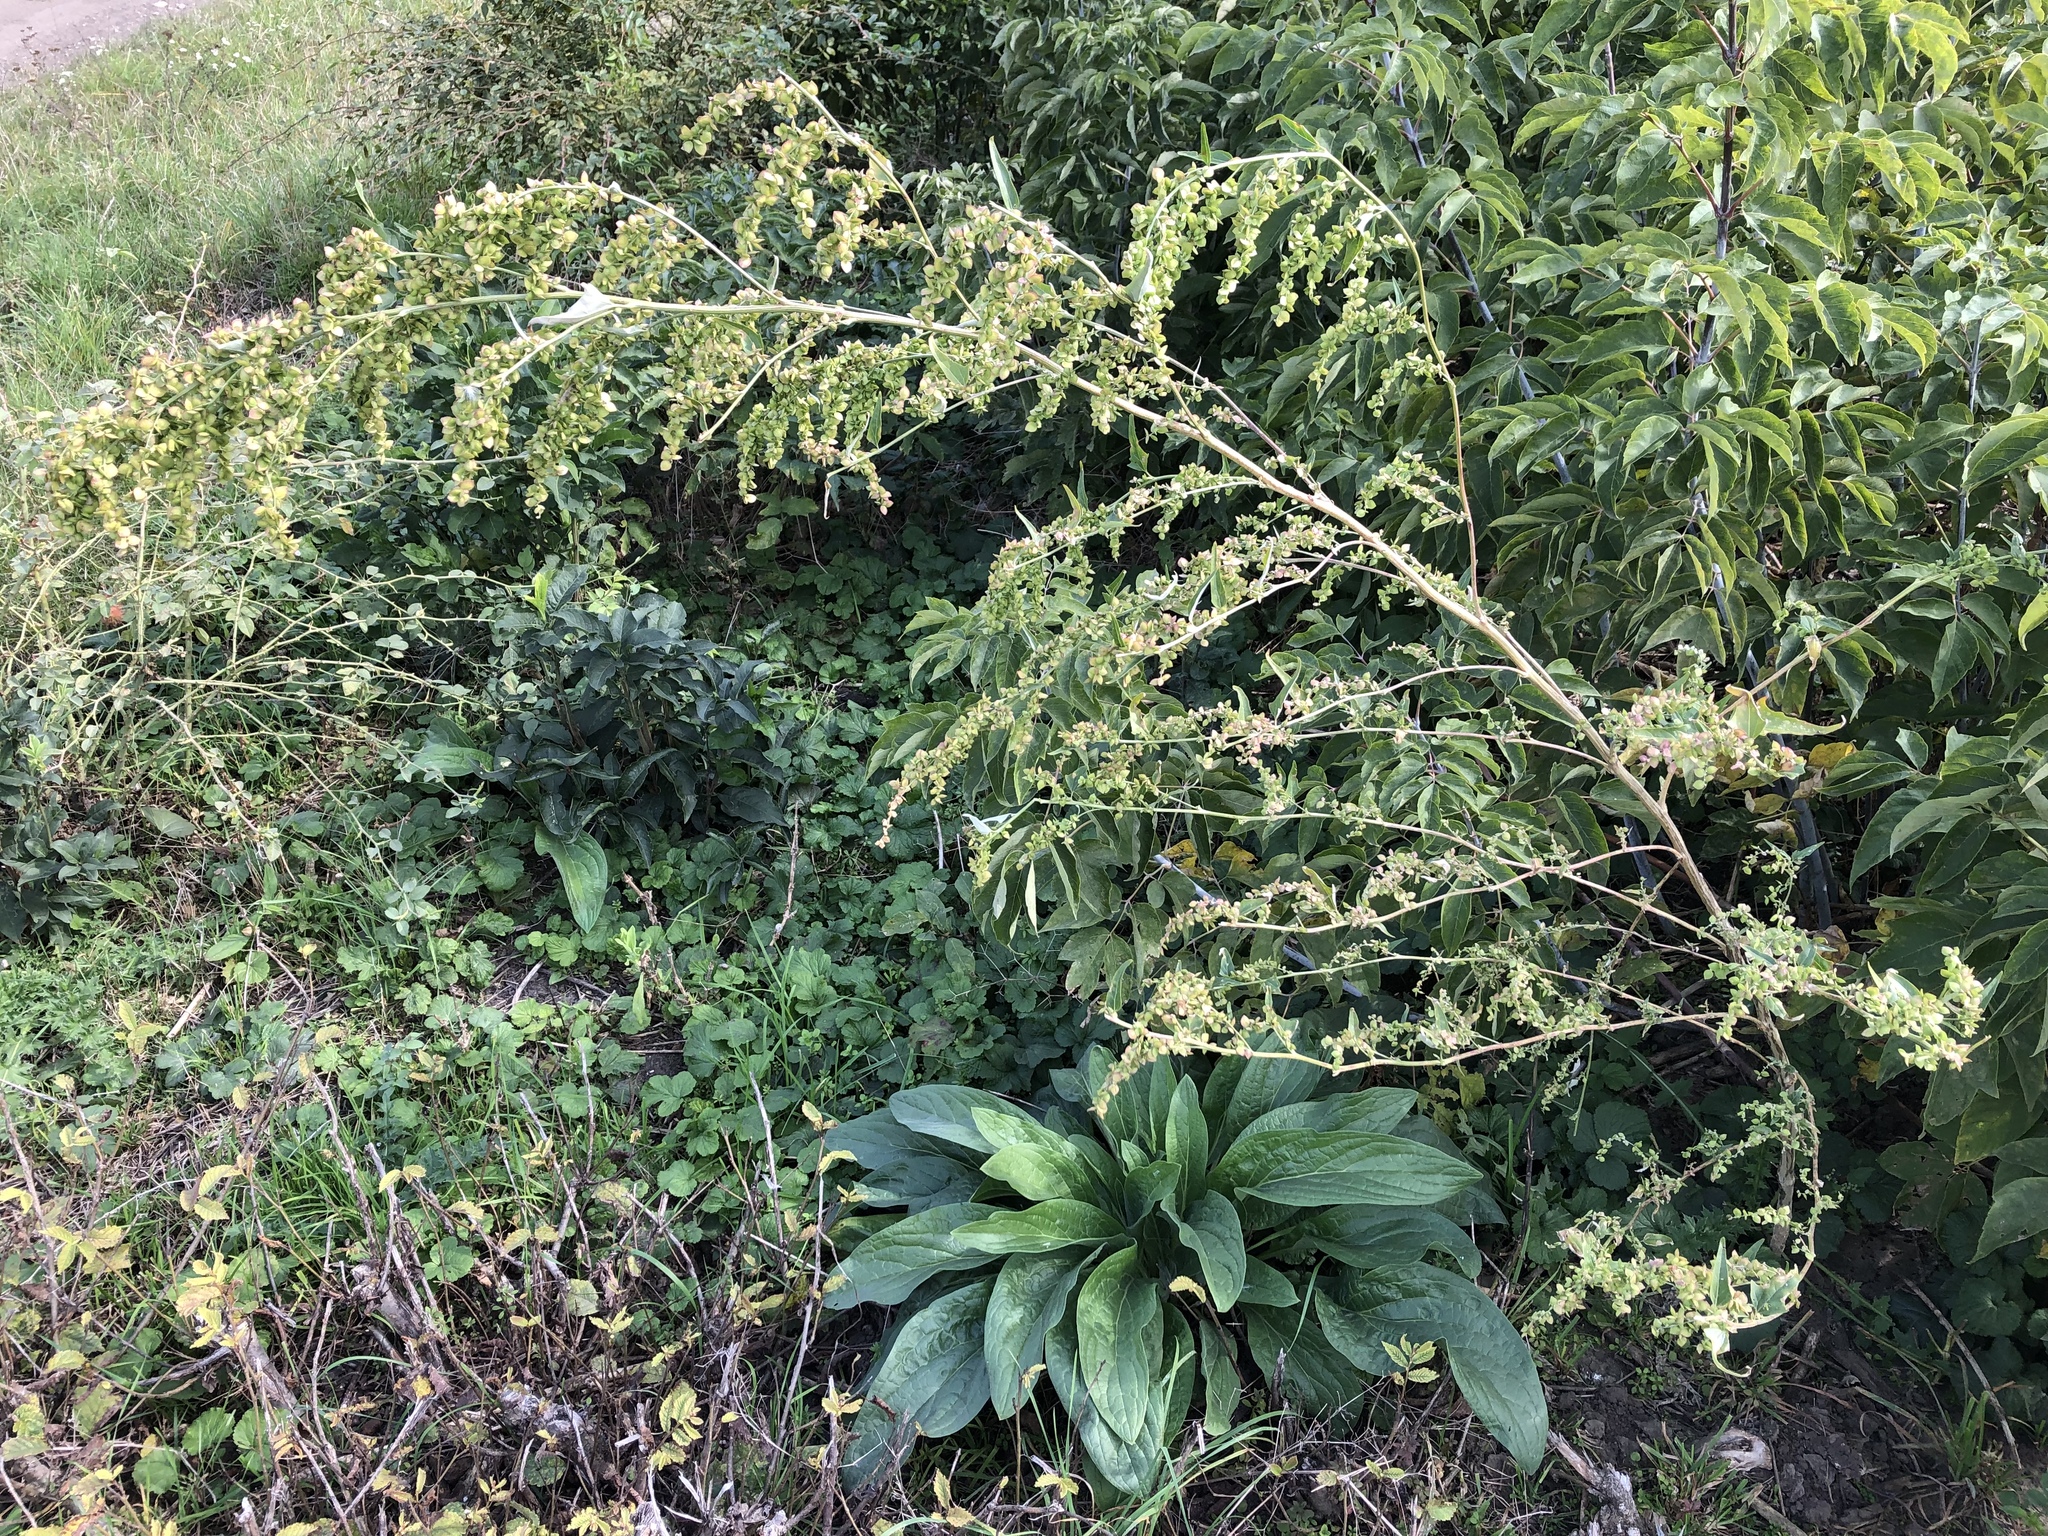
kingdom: Plantae
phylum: Tracheophyta
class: Magnoliopsida
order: Caryophyllales
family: Amaranthaceae
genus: Atriplex
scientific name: Atriplex sagittata
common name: Purple orache
